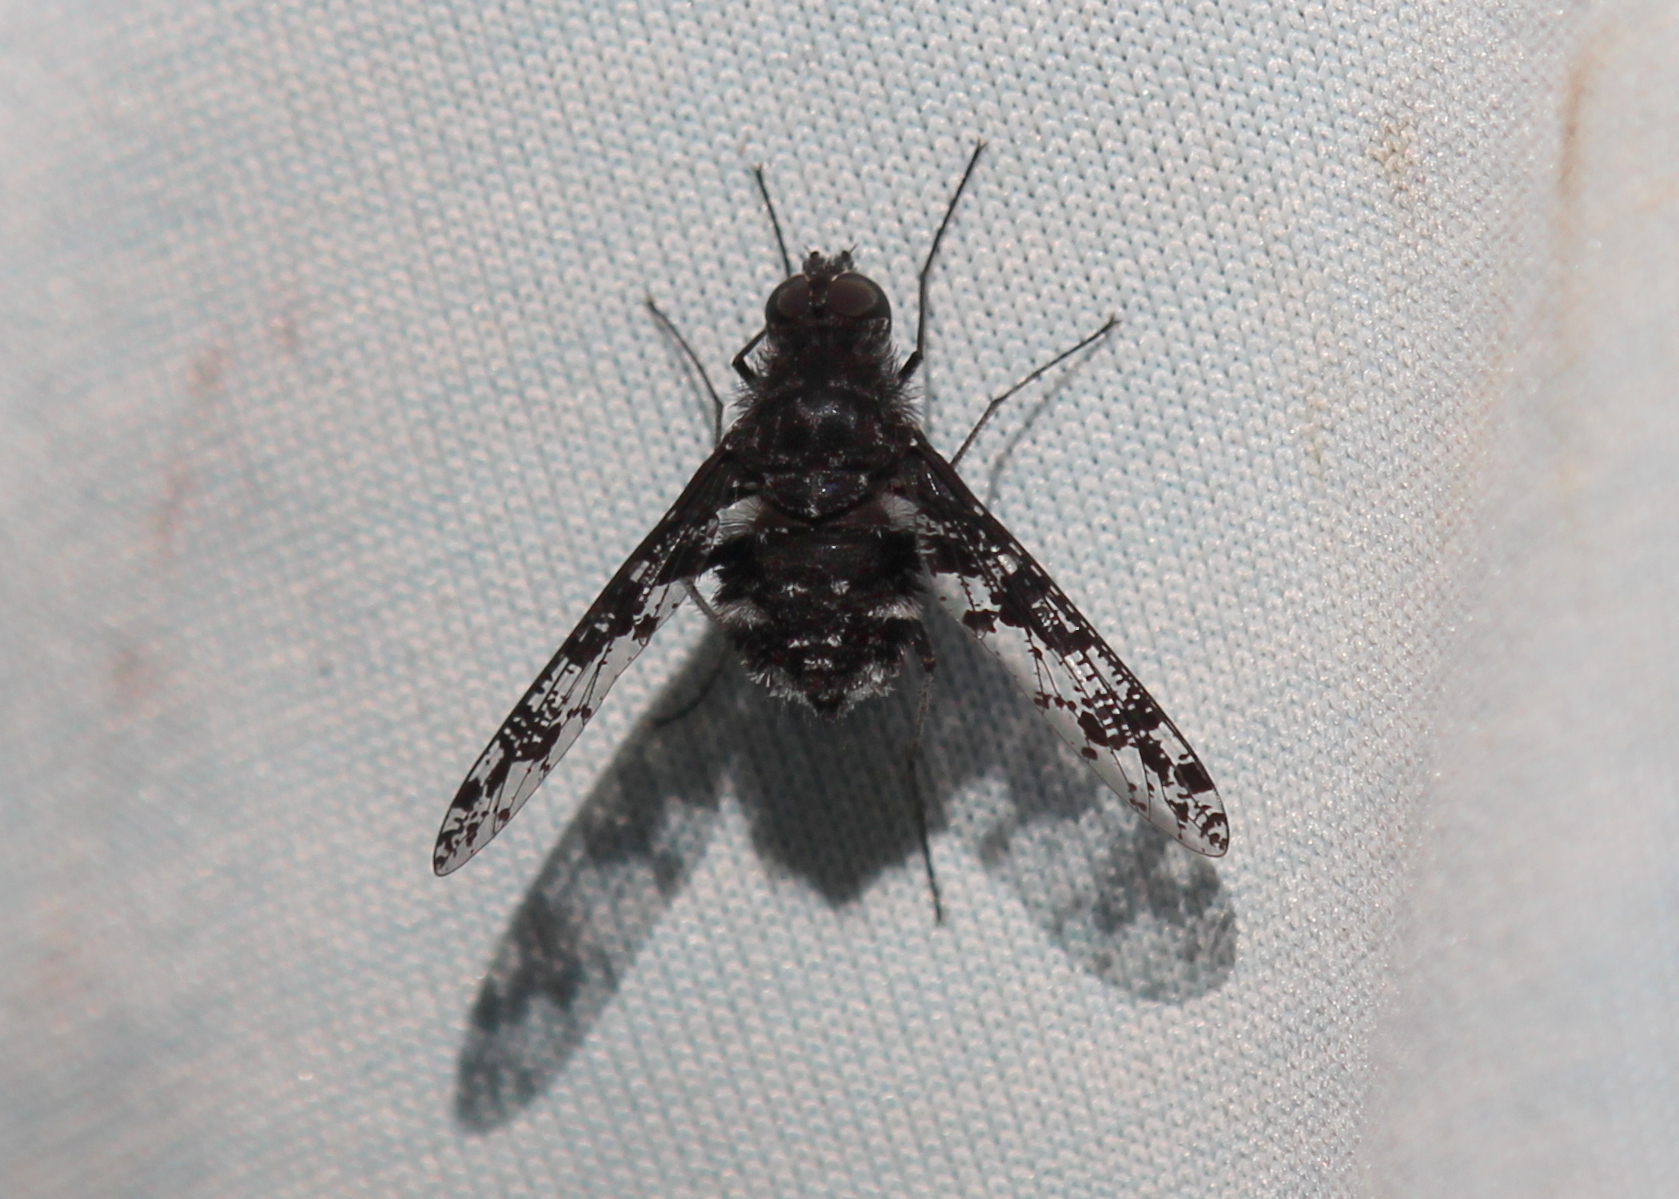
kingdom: Animalia
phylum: Arthropoda
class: Insecta
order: Diptera
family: Bombyliidae
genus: Anthrax
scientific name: Anthrax irroratus
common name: Spotted bee fly
